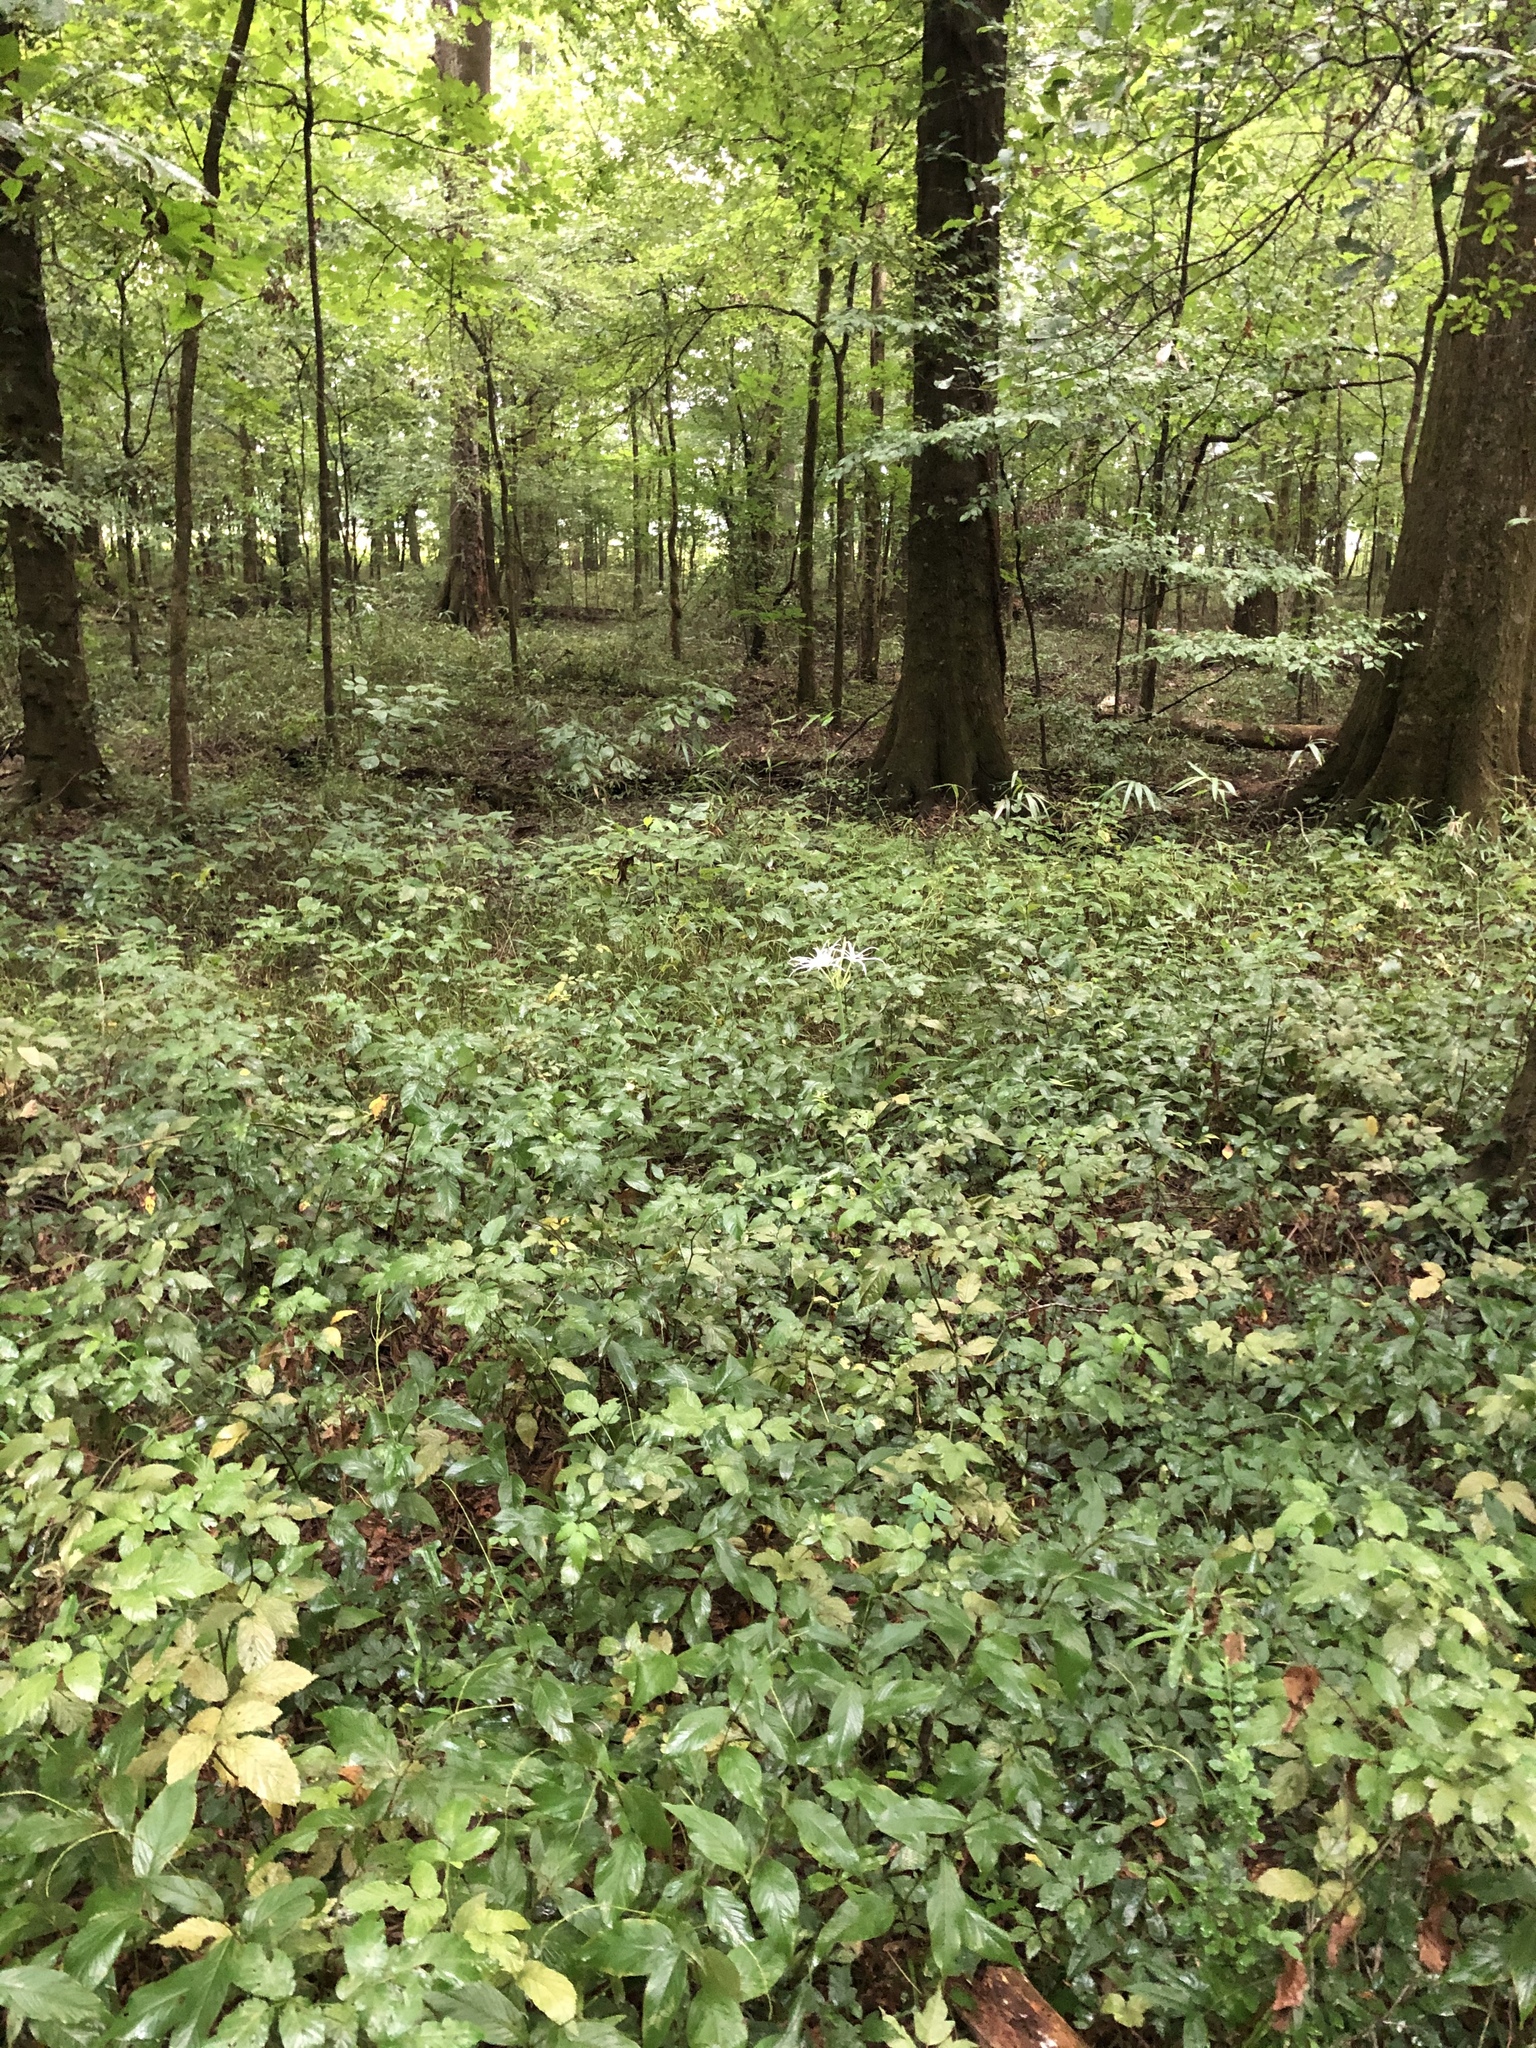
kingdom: Plantae
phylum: Tracheophyta
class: Liliopsida
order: Asparagales
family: Amaryllidaceae
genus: Hymenocallis
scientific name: Hymenocallis occidentalis
